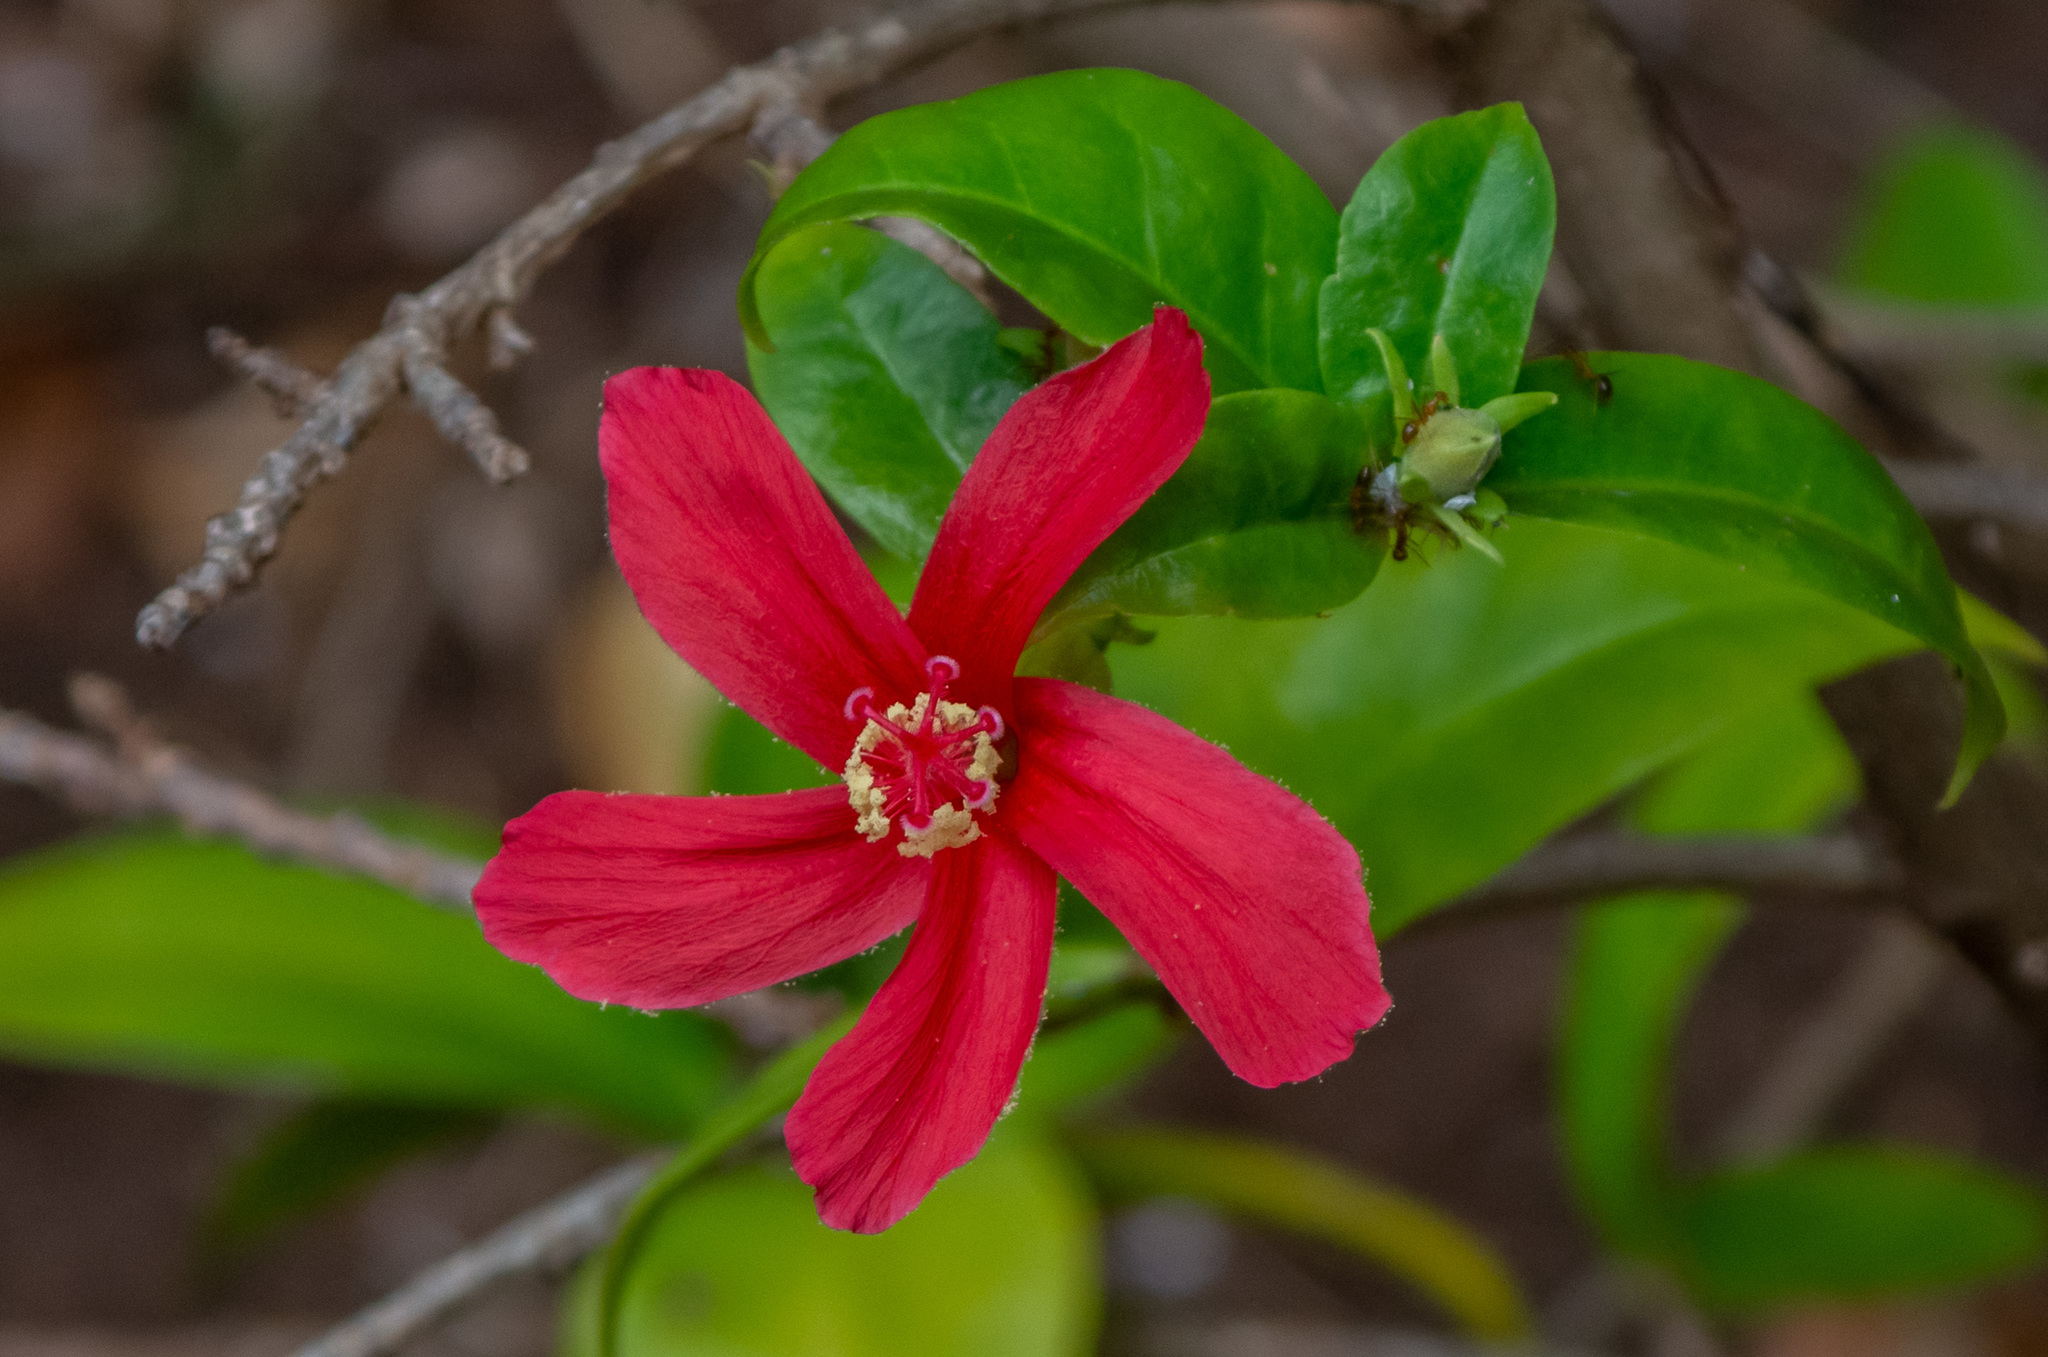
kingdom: Plantae
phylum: Tracheophyta
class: Magnoliopsida
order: Malvales
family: Malvaceae
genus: Hibiscus
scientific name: Hibiscus clayi
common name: Clay's hibiscus
